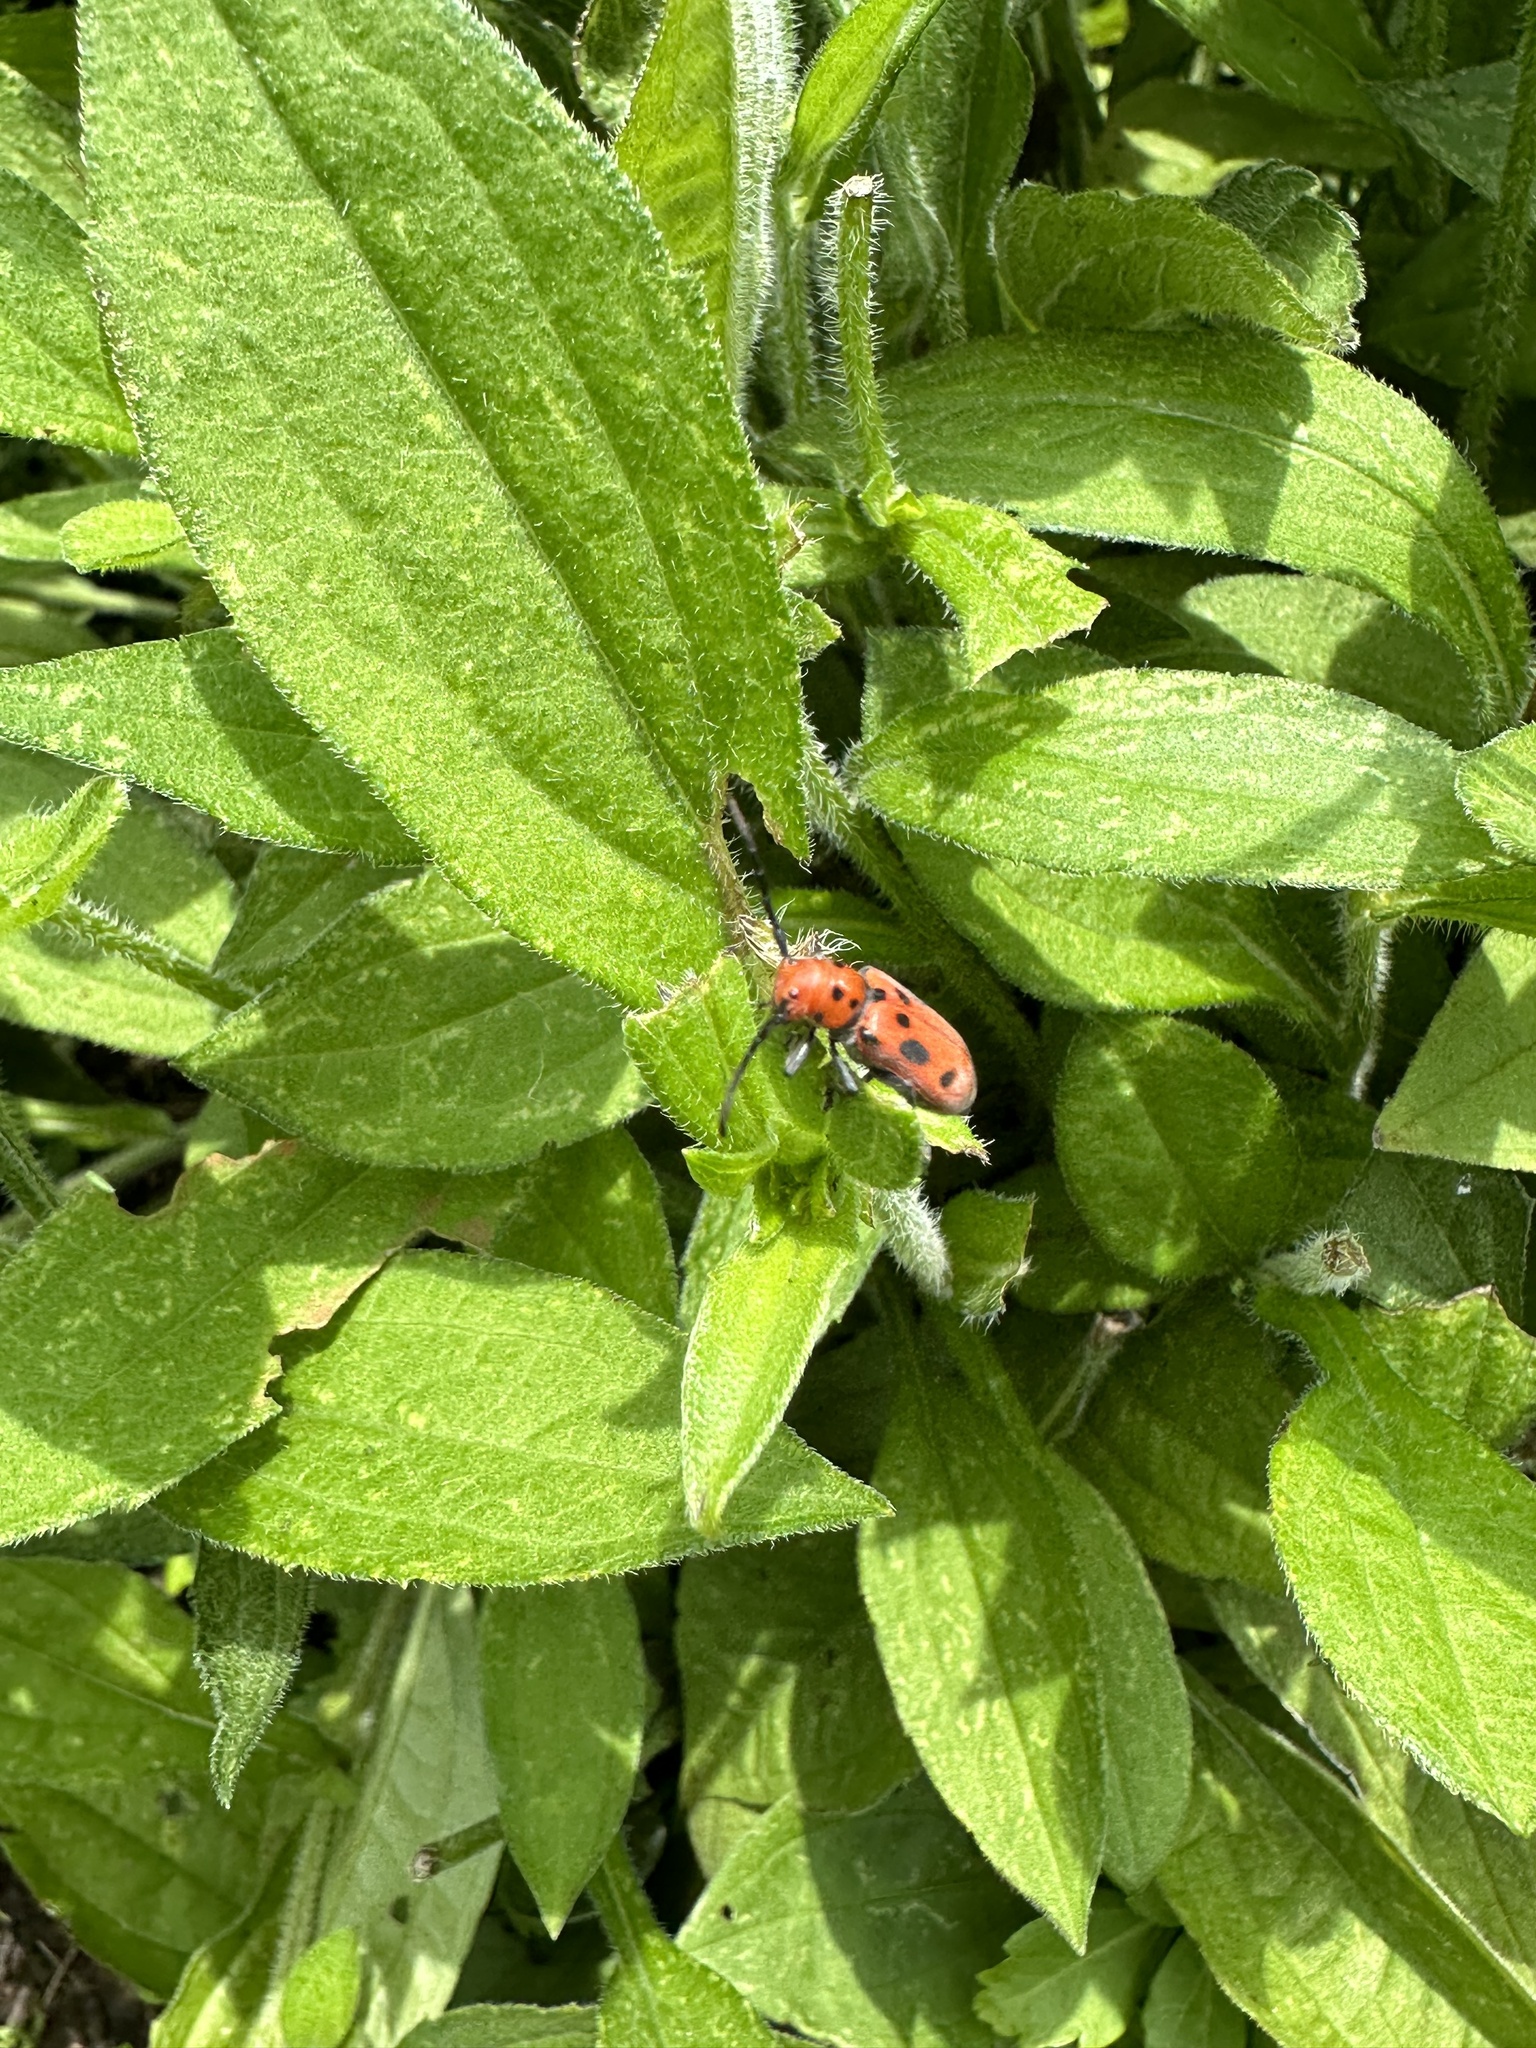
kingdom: Animalia
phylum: Arthropoda
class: Insecta
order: Coleoptera
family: Cerambycidae
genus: Tetraopes
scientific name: Tetraopes tetrophthalmus
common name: Red milkweed beetle
